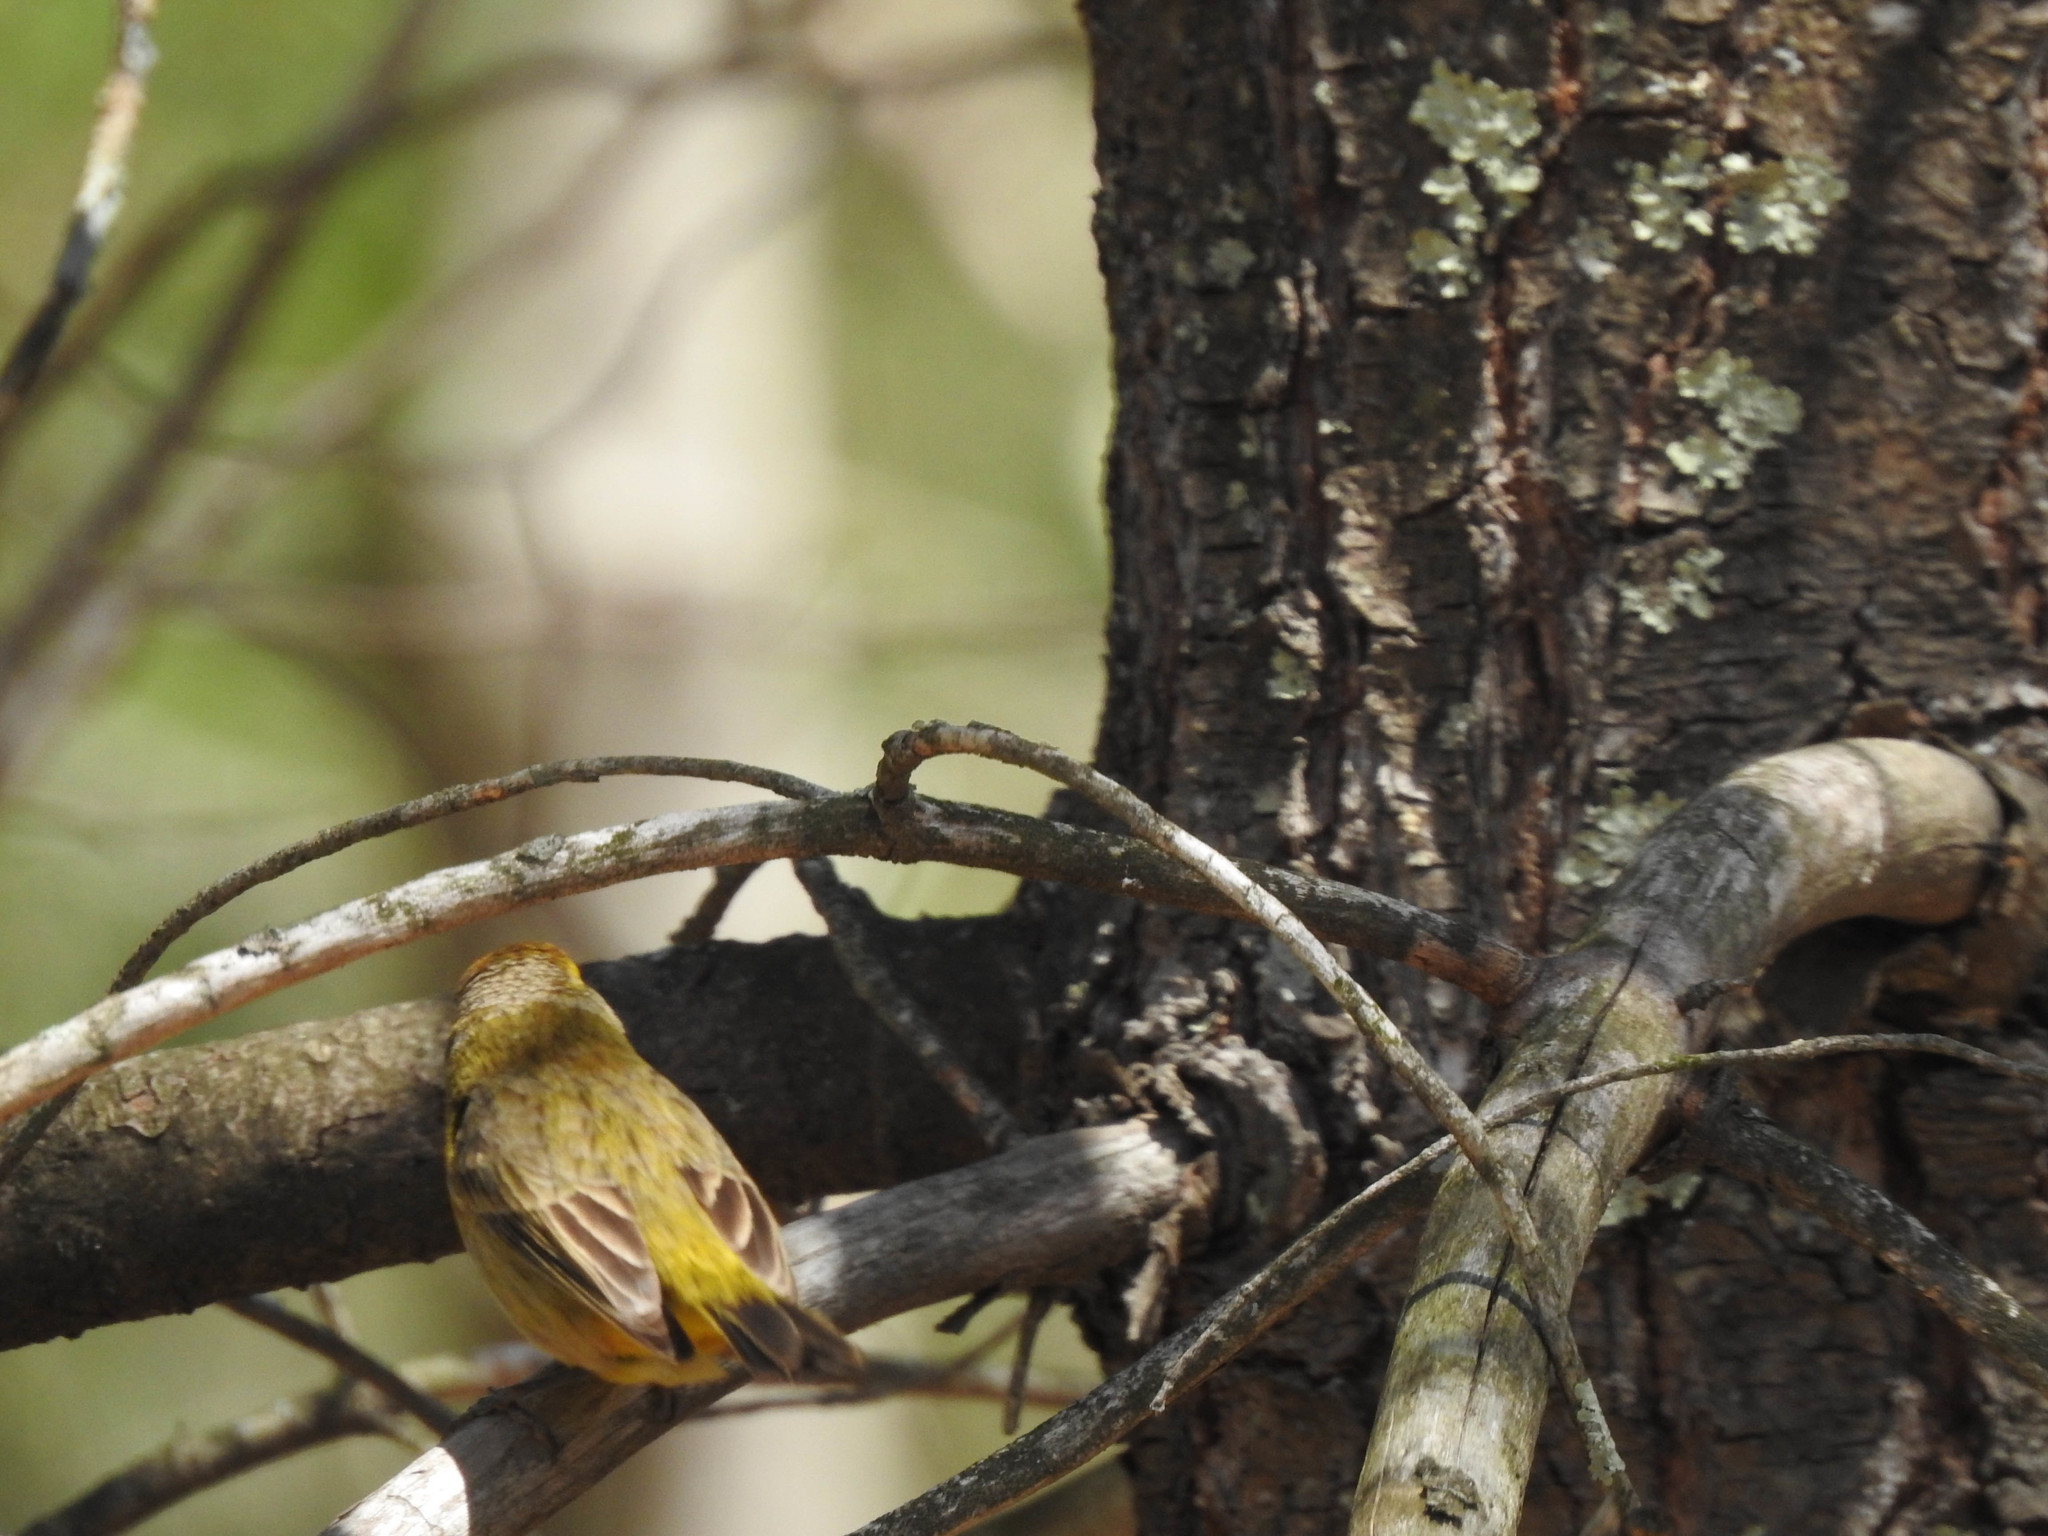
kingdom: Animalia
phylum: Chordata
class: Aves
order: Passeriformes
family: Parulidae
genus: Setophaga
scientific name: Setophaga palmarum
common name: Palm warbler
